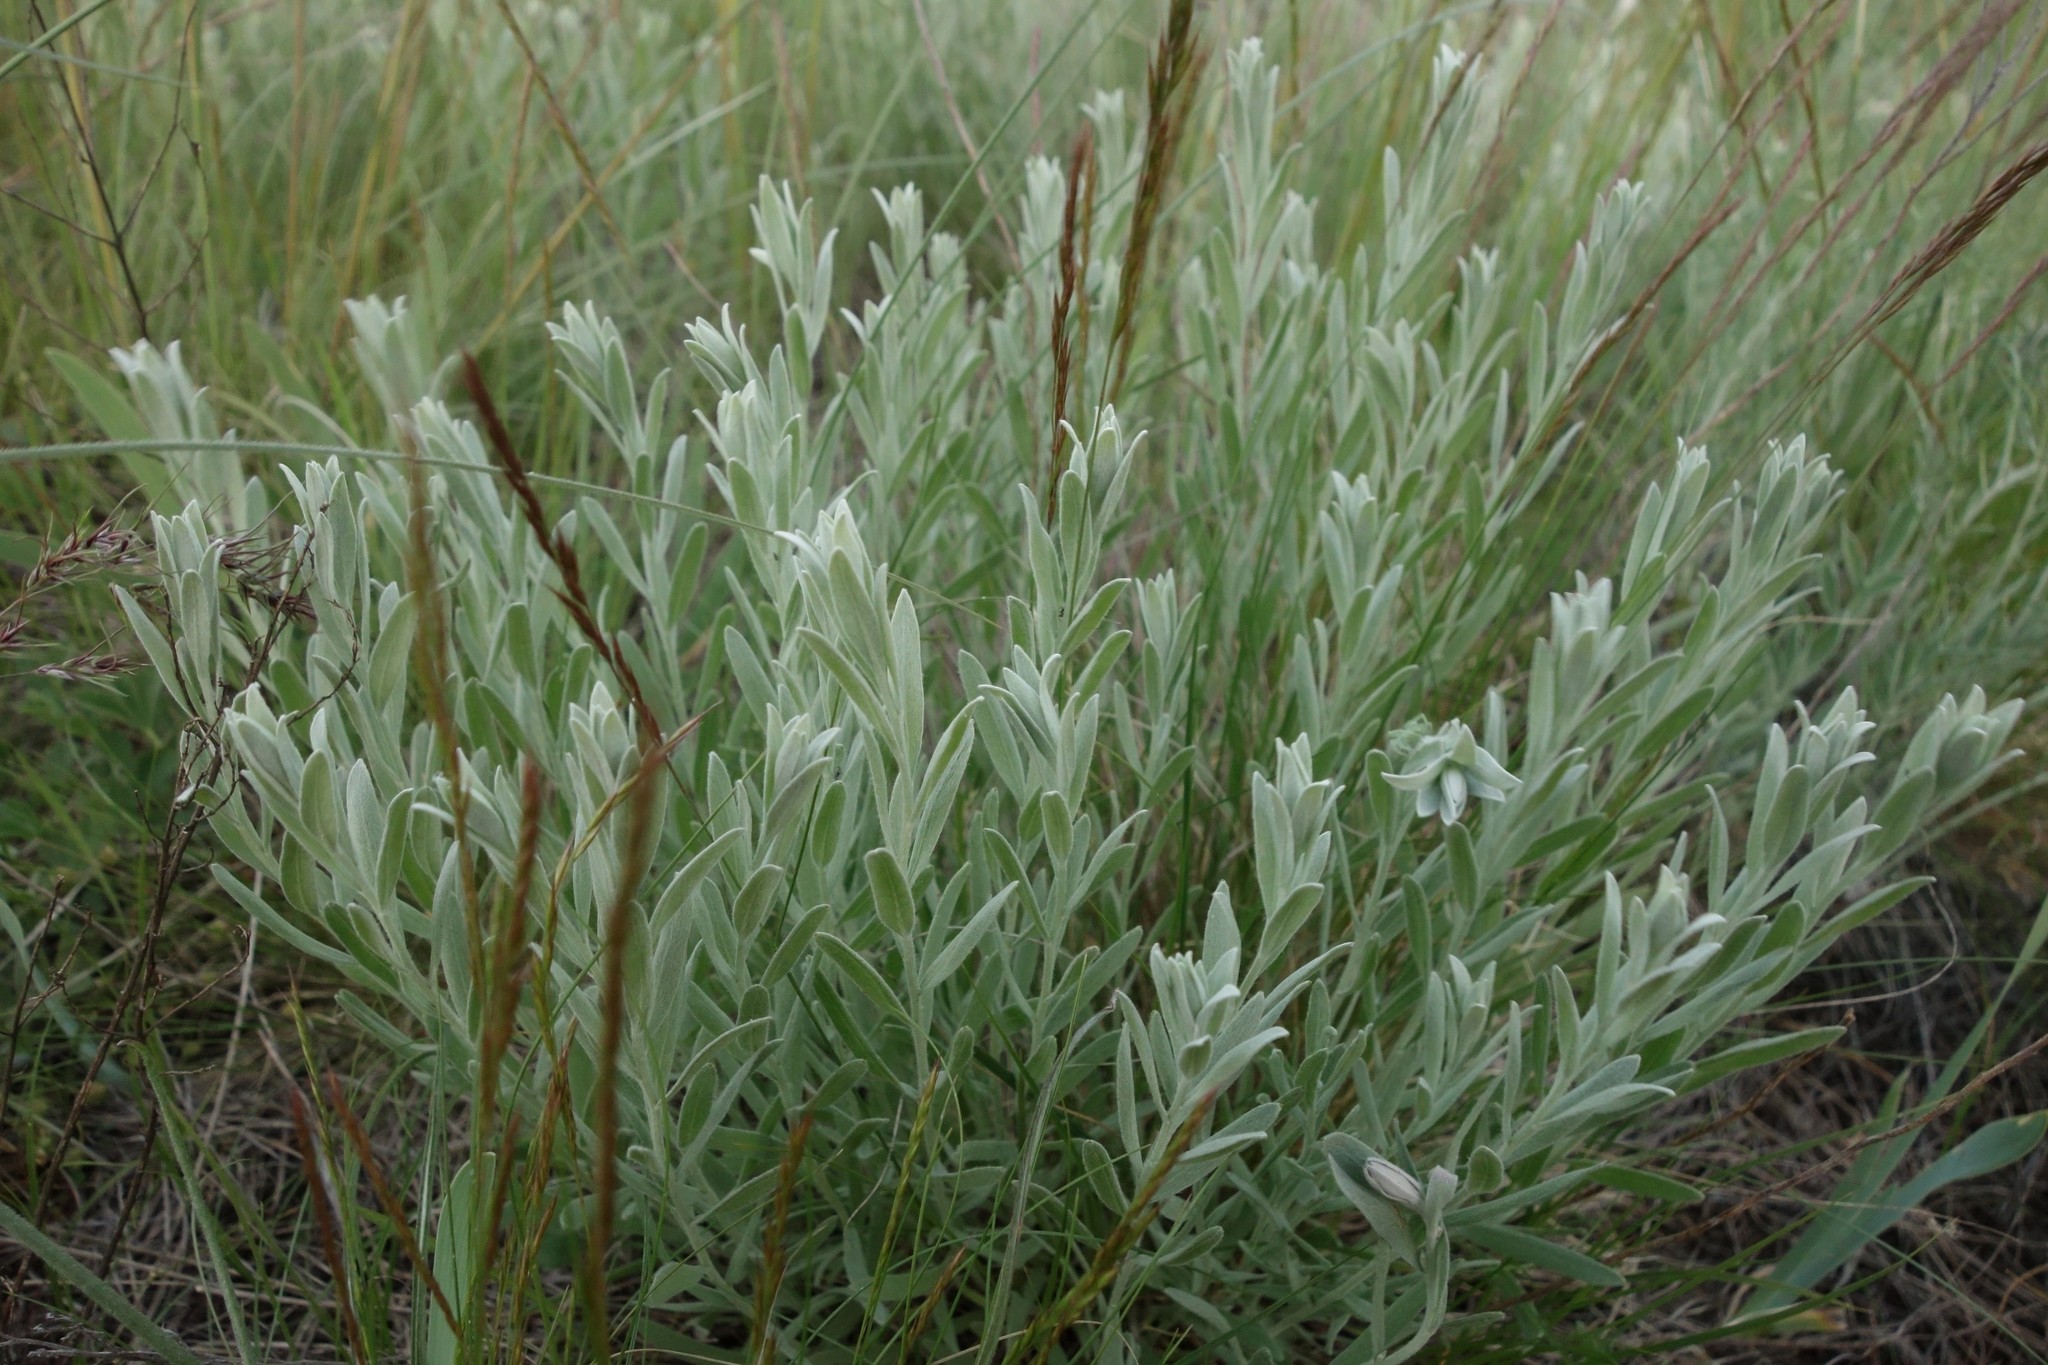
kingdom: Plantae
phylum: Tracheophyta
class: Magnoliopsida
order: Asterales
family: Asteraceae
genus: Galatella
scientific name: Galatella villosa
